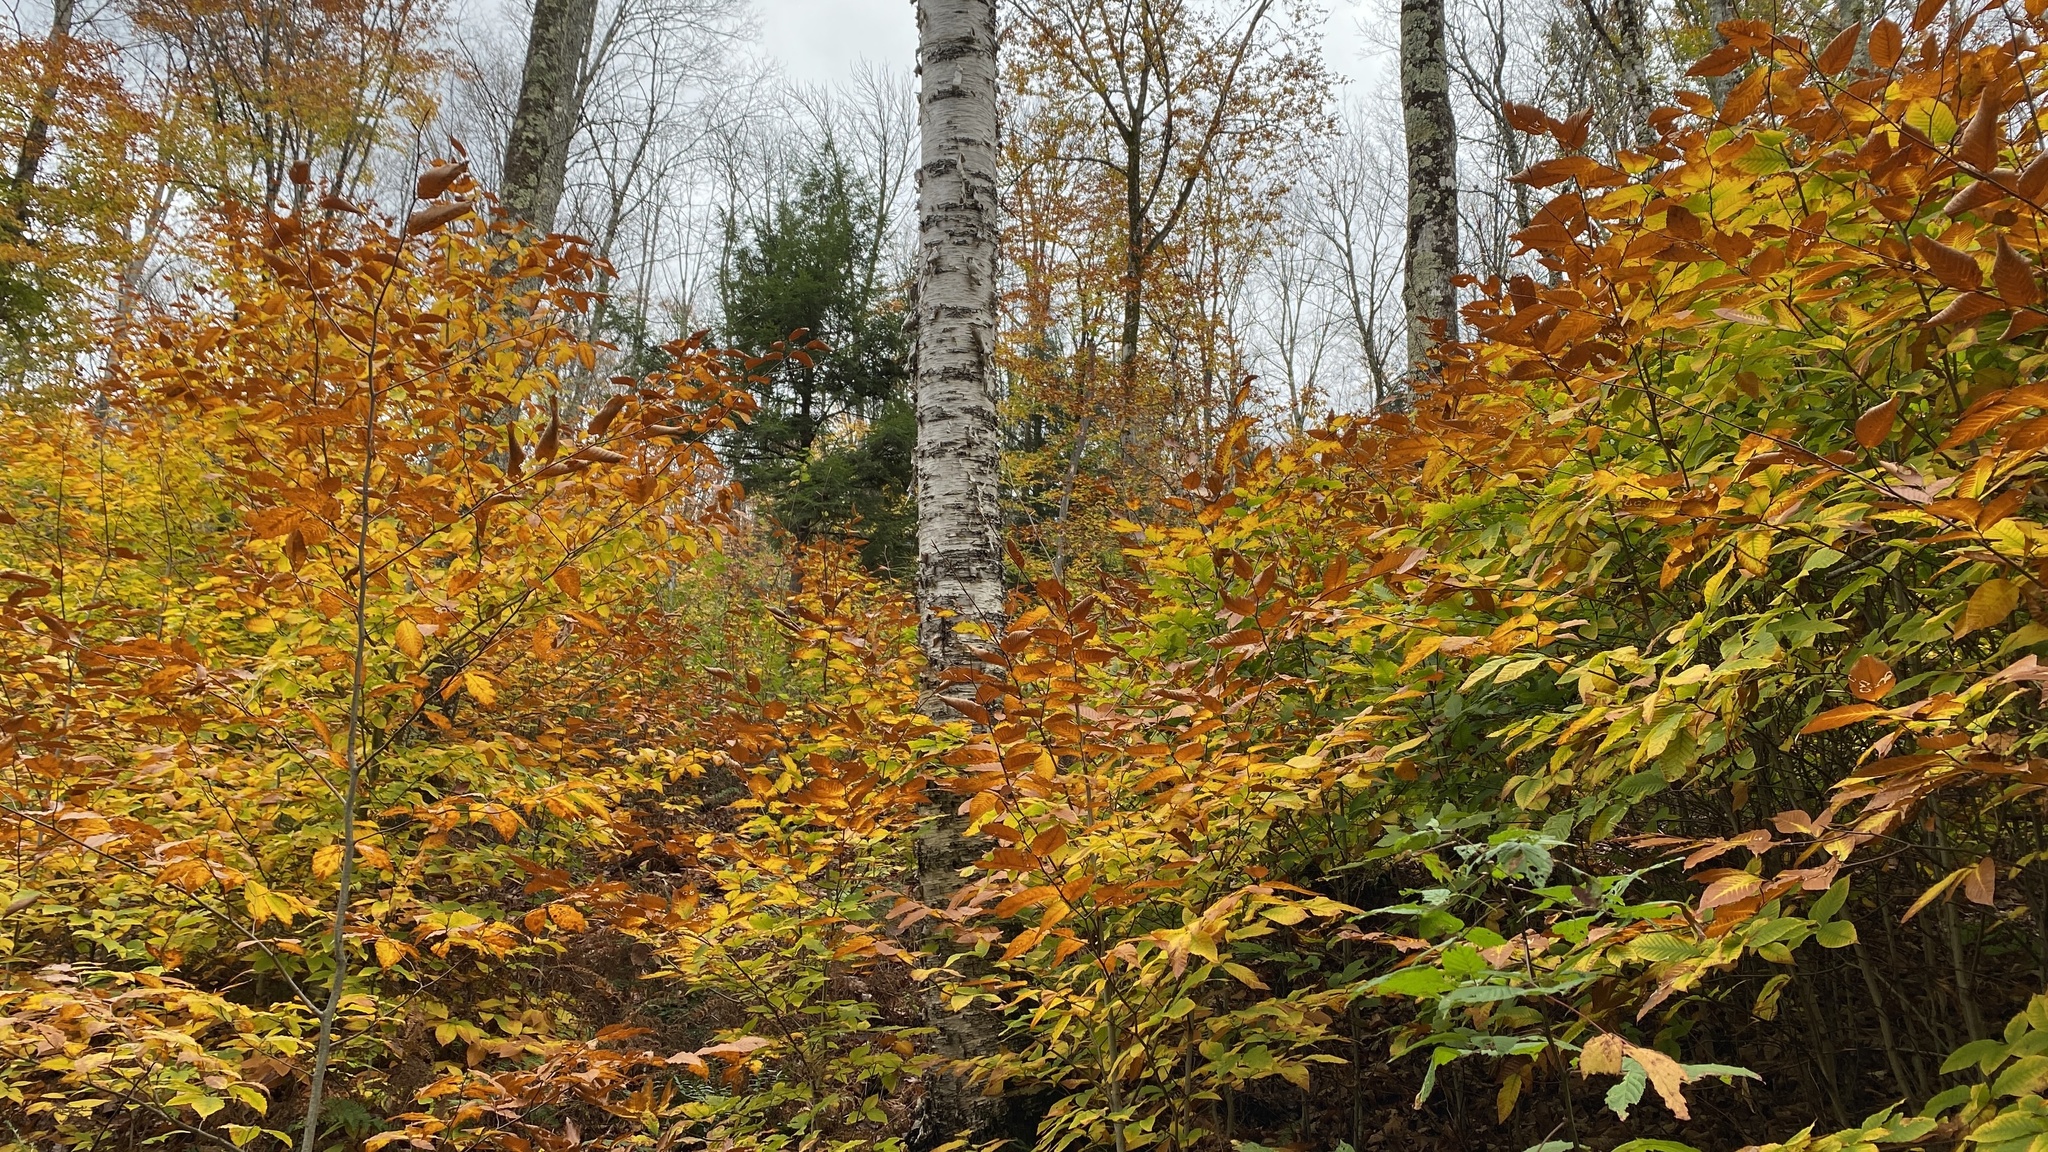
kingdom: Plantae
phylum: Tracheophyta
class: Magnoliopsida
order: Fagales
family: Betulaceae
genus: Betula
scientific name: Betula papyrifera
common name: Paper birch
